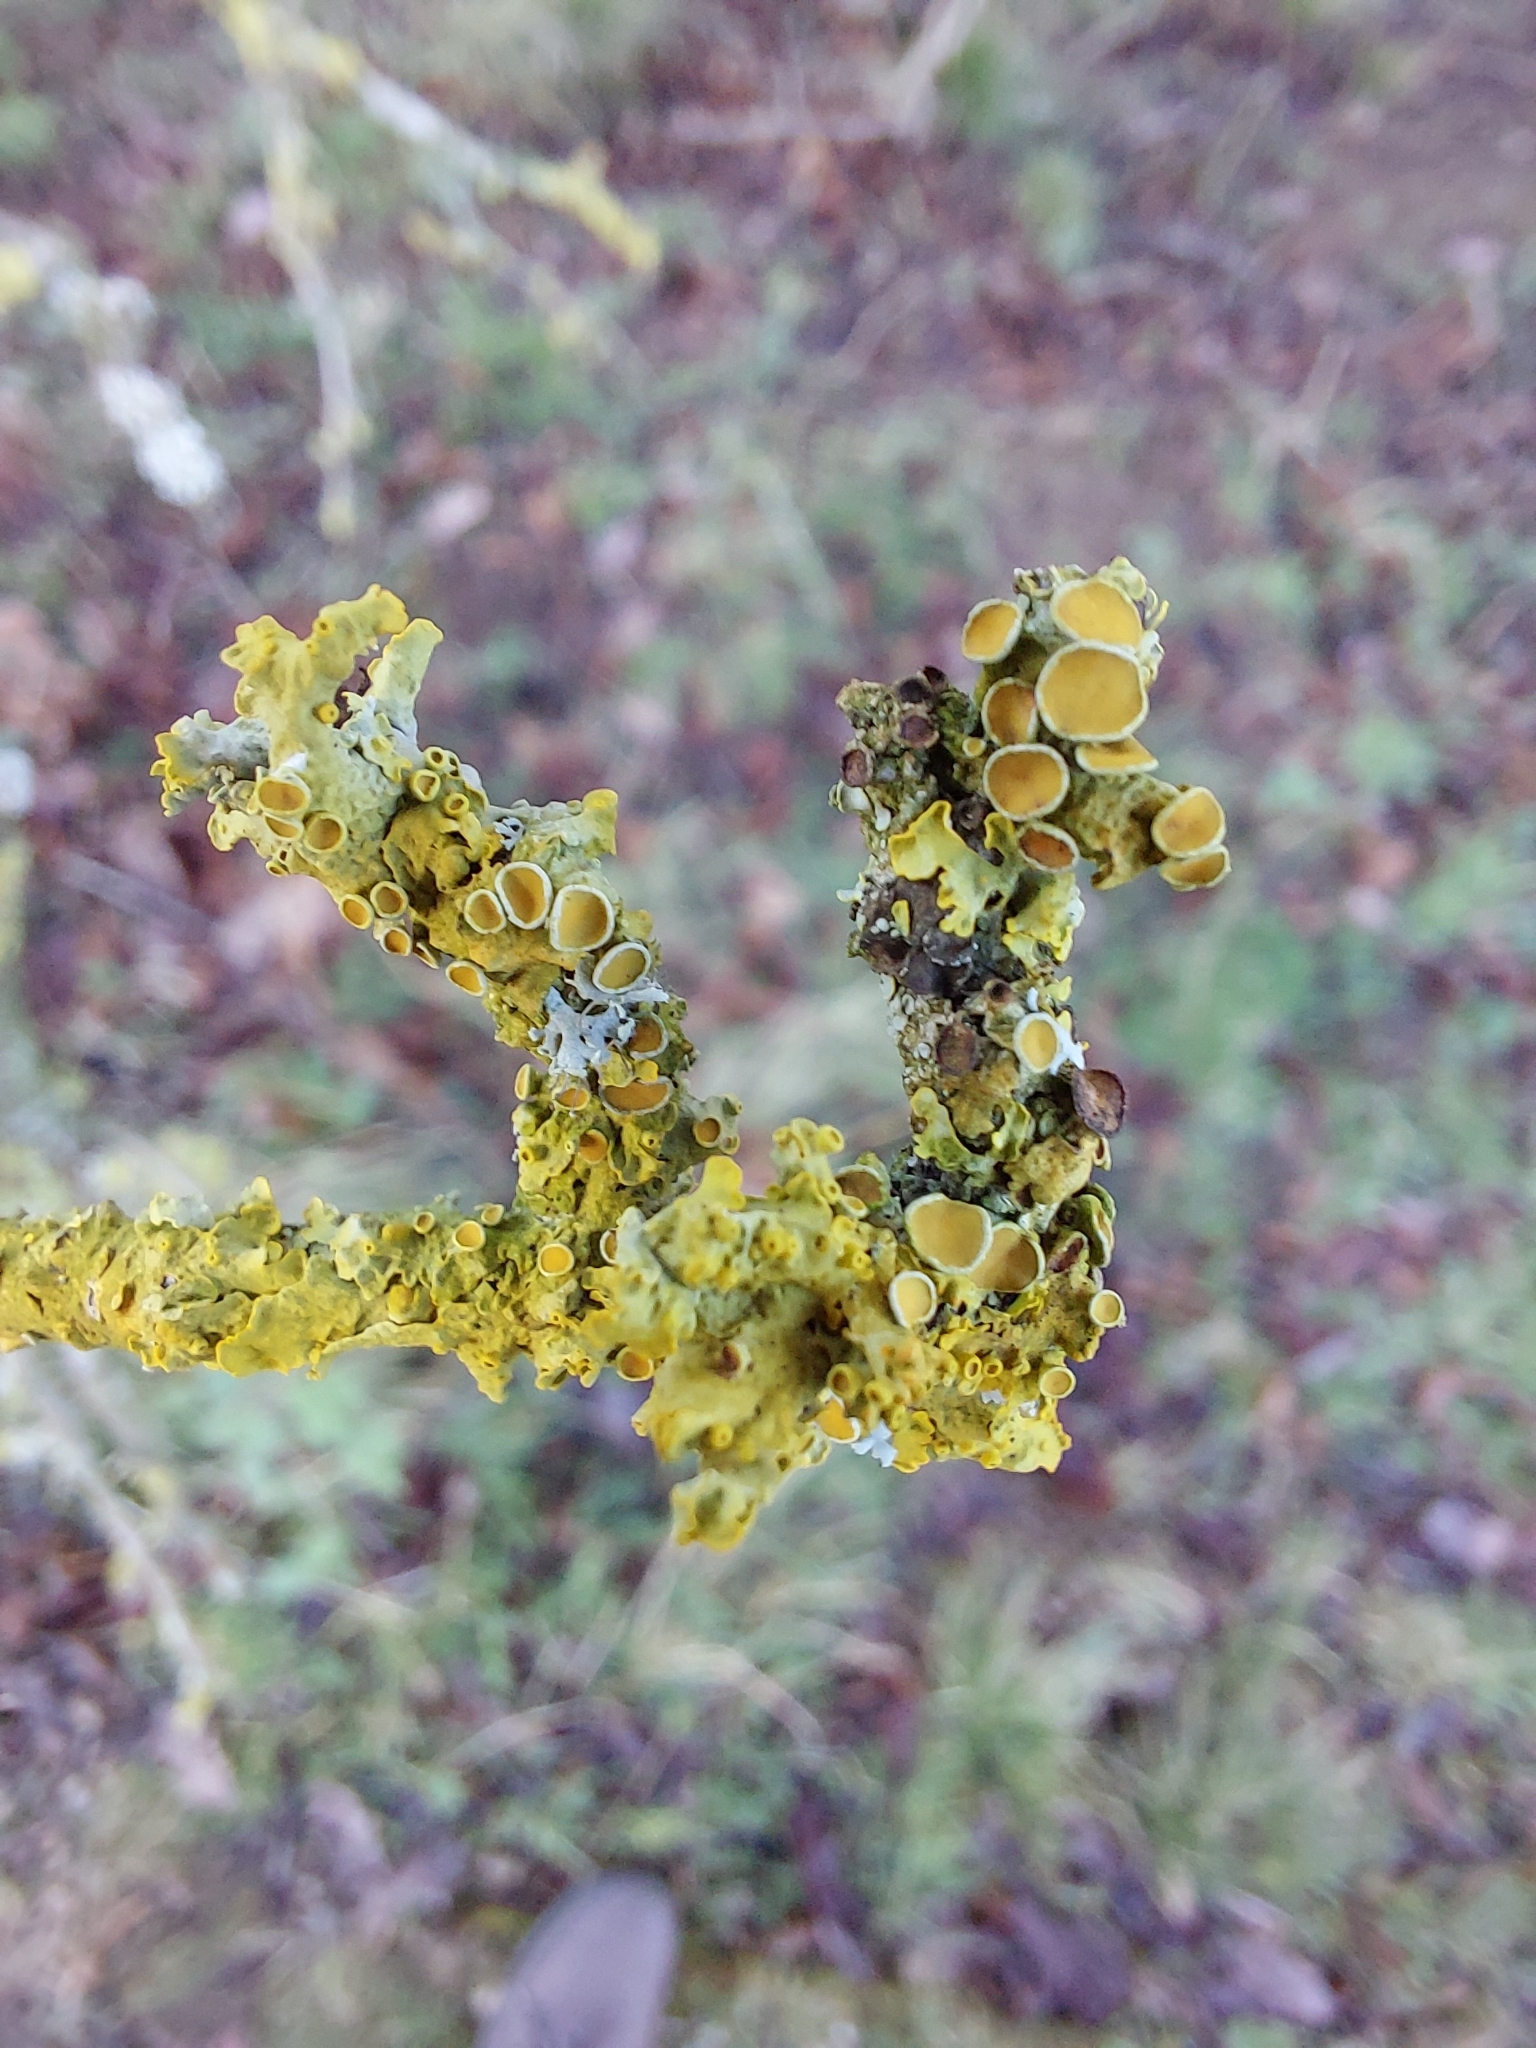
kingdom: Fungi
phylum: Ascomycota
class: Lecanoromycetes
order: Teloschistales
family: Teloschistaceae
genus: Xanthoria
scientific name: Xanthoria parietina
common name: Common orange lichen
